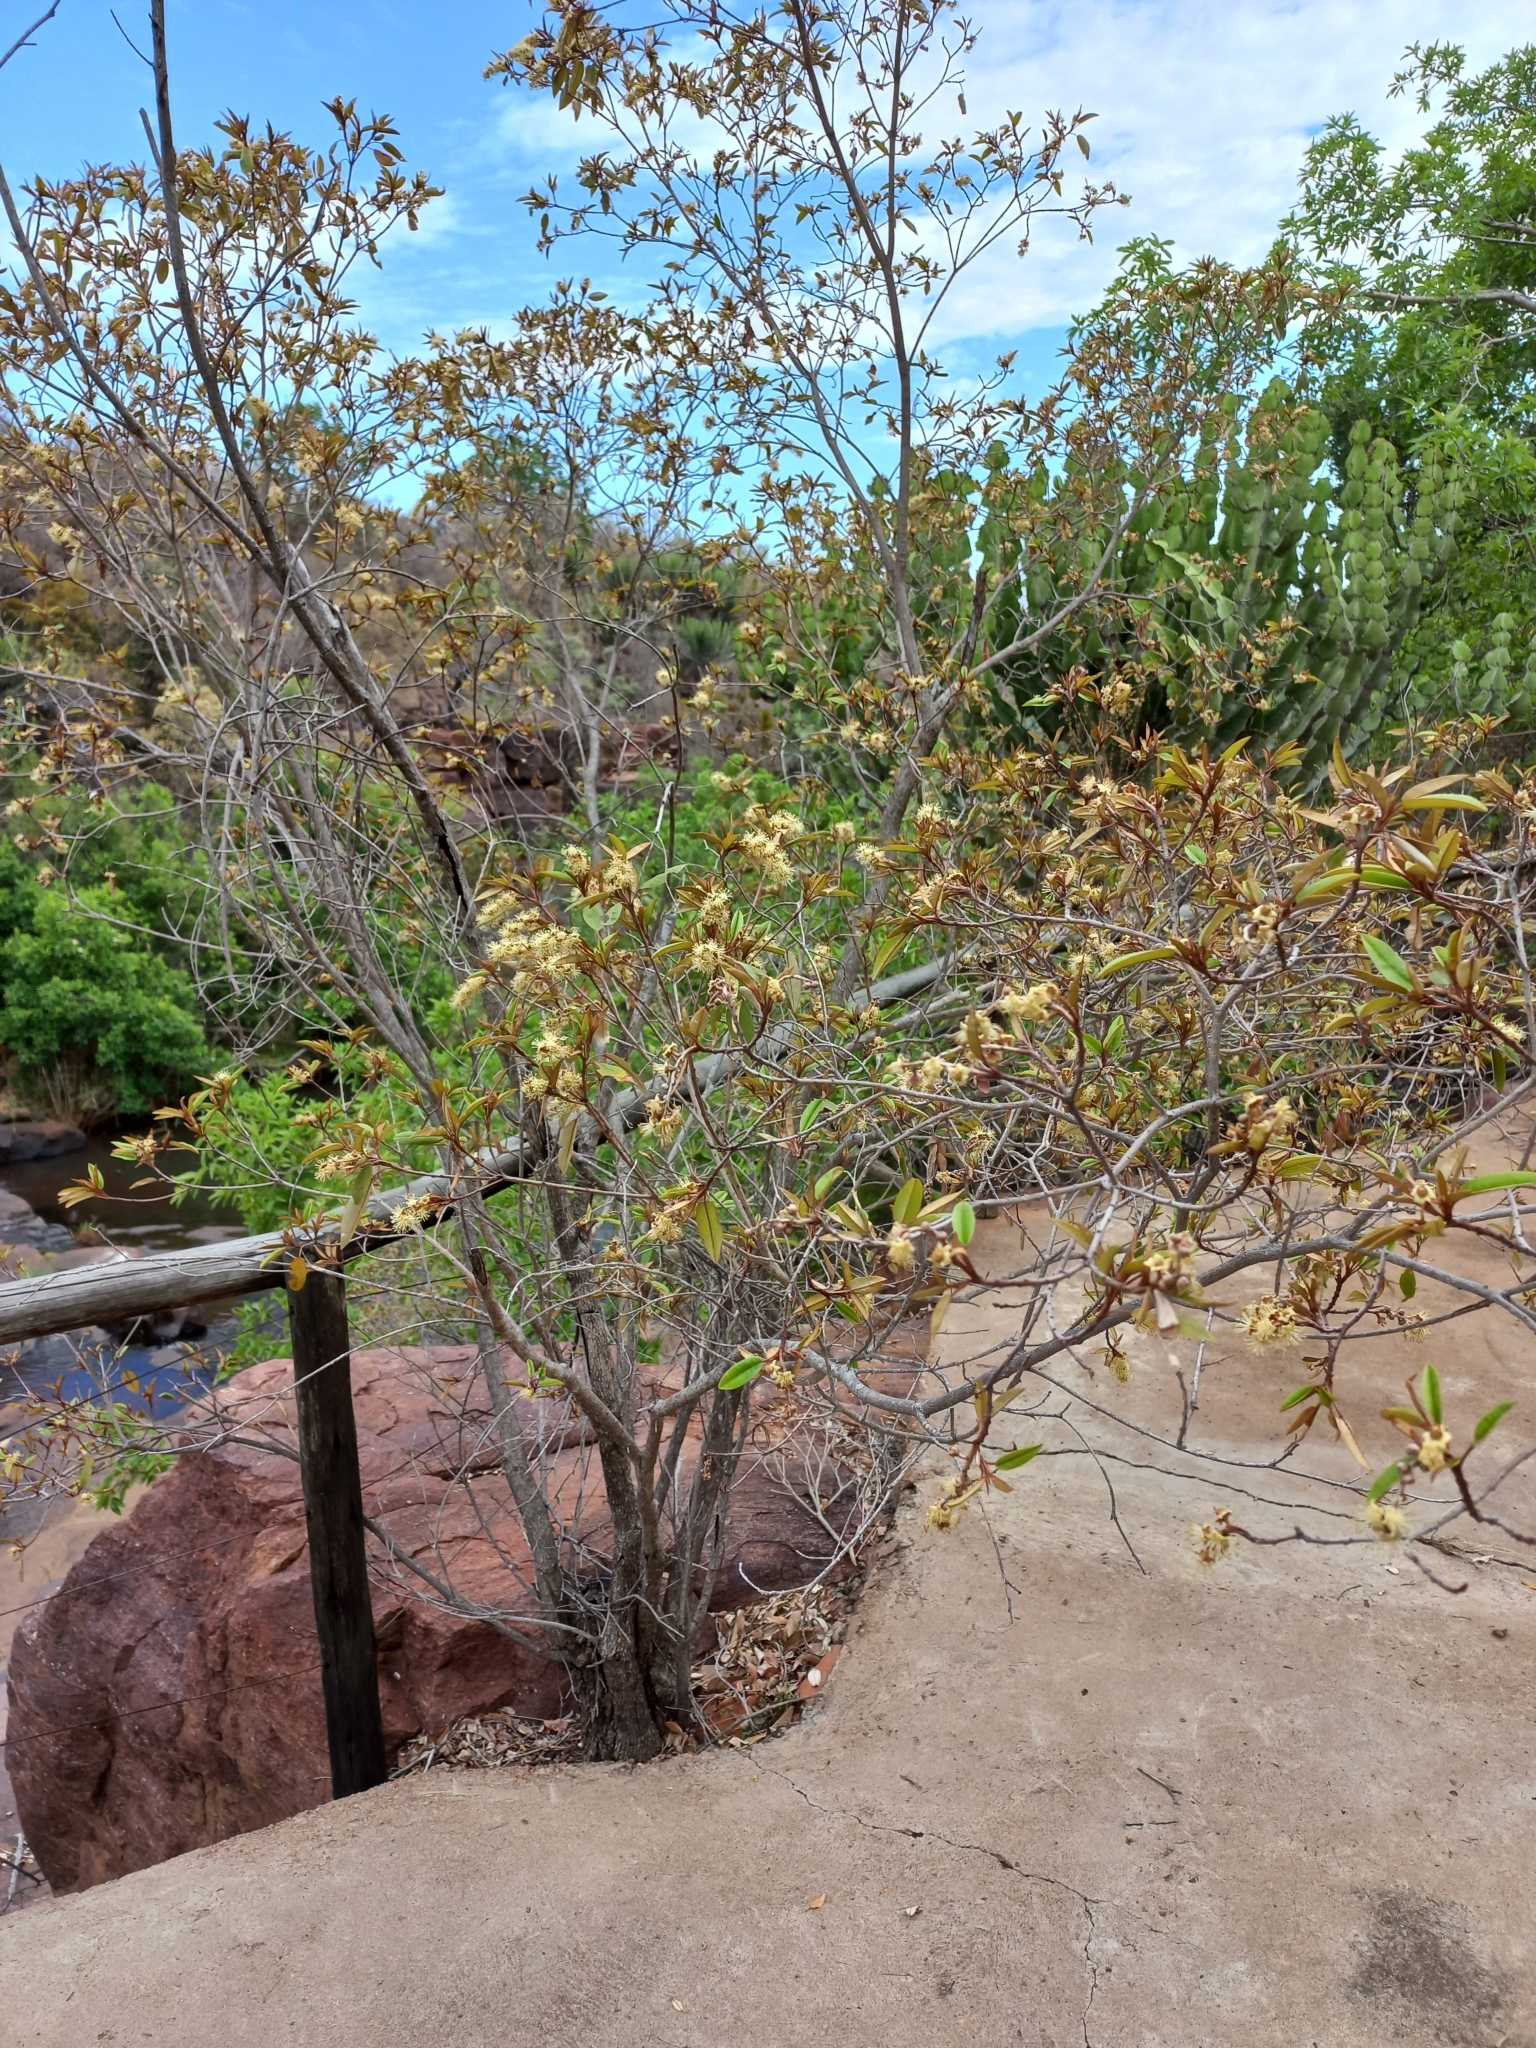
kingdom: Plantae
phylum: Tracheophyta
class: Magnoliopsida
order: Malpighiales
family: Euphorbiaceae
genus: Croton
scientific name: Croton gratissimus
